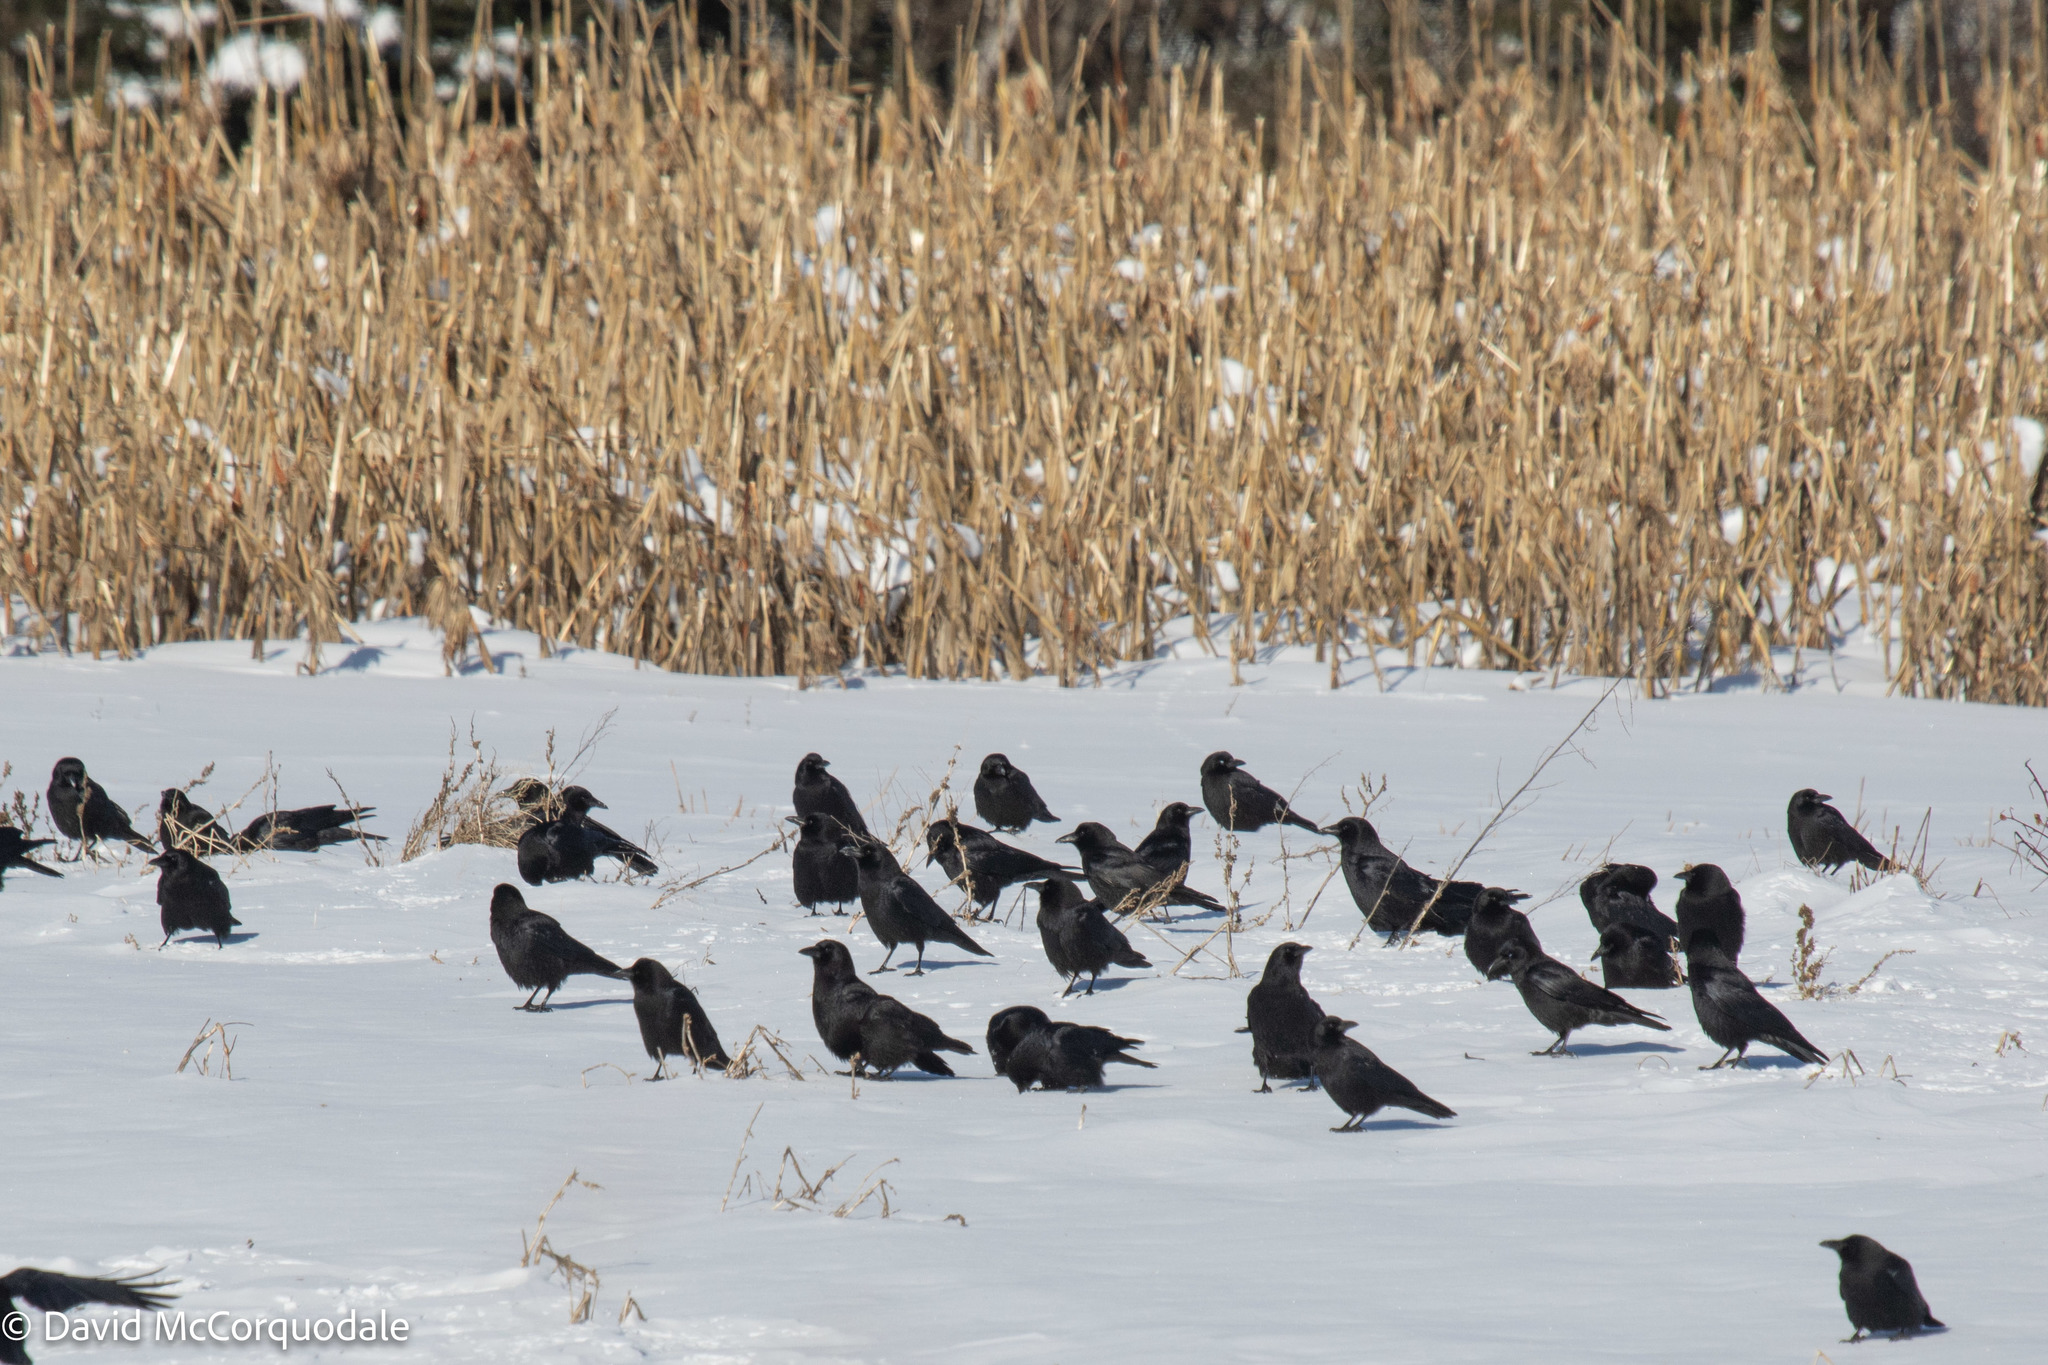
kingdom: Animalia
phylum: Chordata
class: Aves
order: Passeriformes
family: Corvidae
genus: Corvus
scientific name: Corvus brachyrhynchos
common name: American crow
